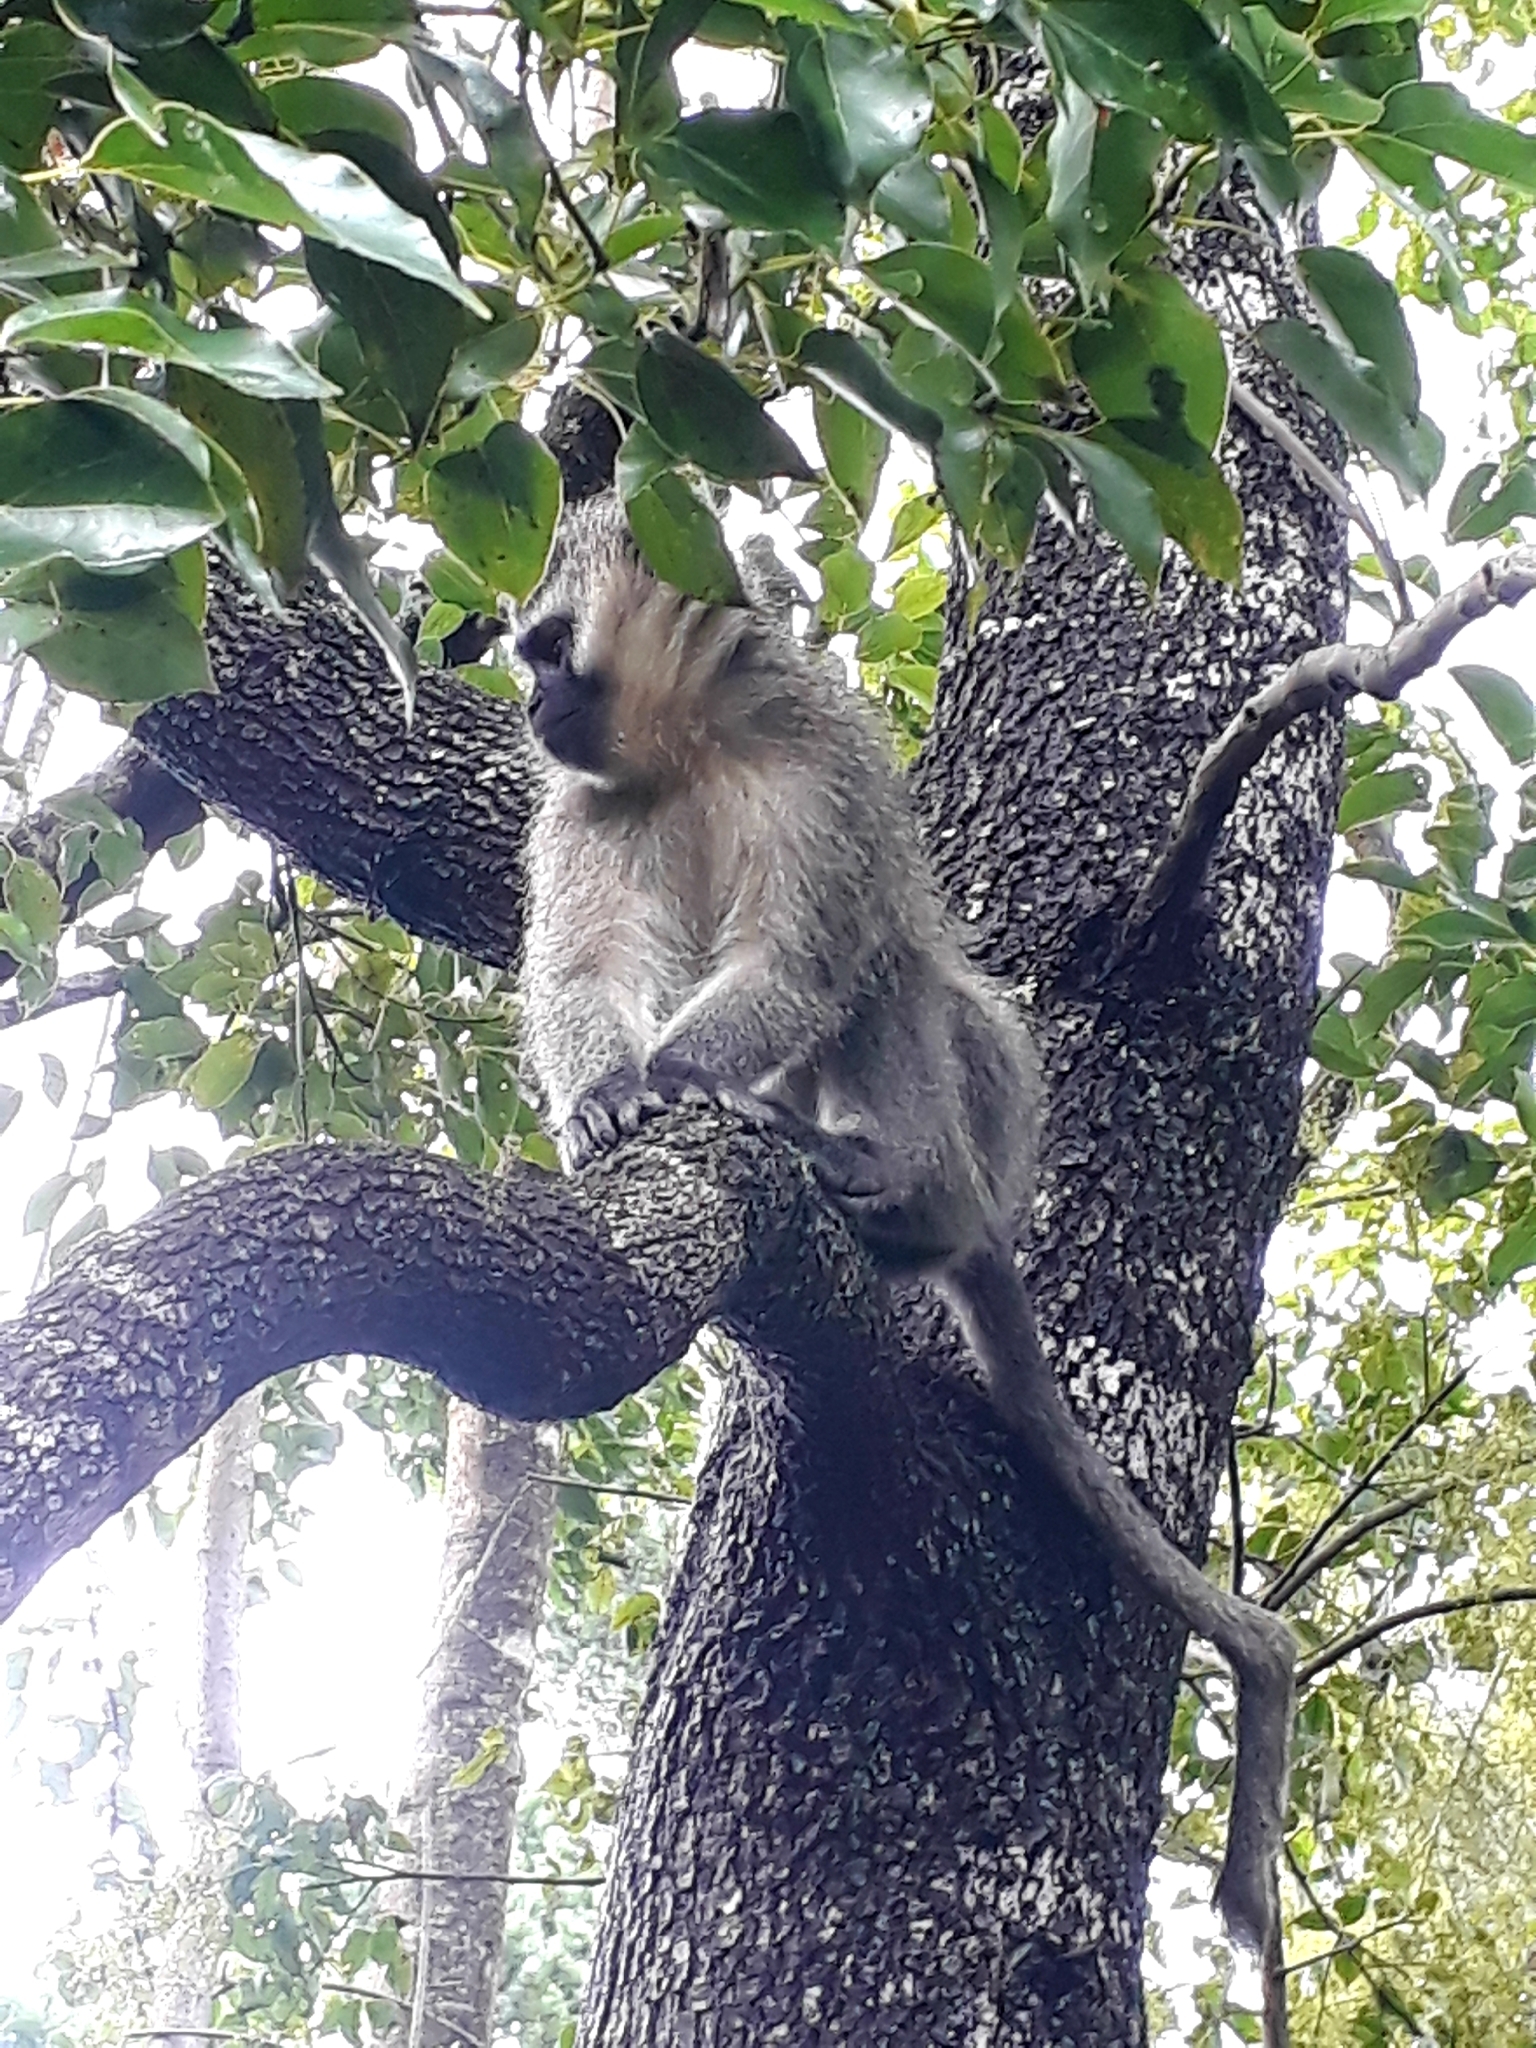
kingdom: Animalia
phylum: Chordata
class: Mammalia
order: Primates
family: Cercopithecidae
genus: Chlorocebus
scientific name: Chlorocebus pygerythrus
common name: Vervet monkey
